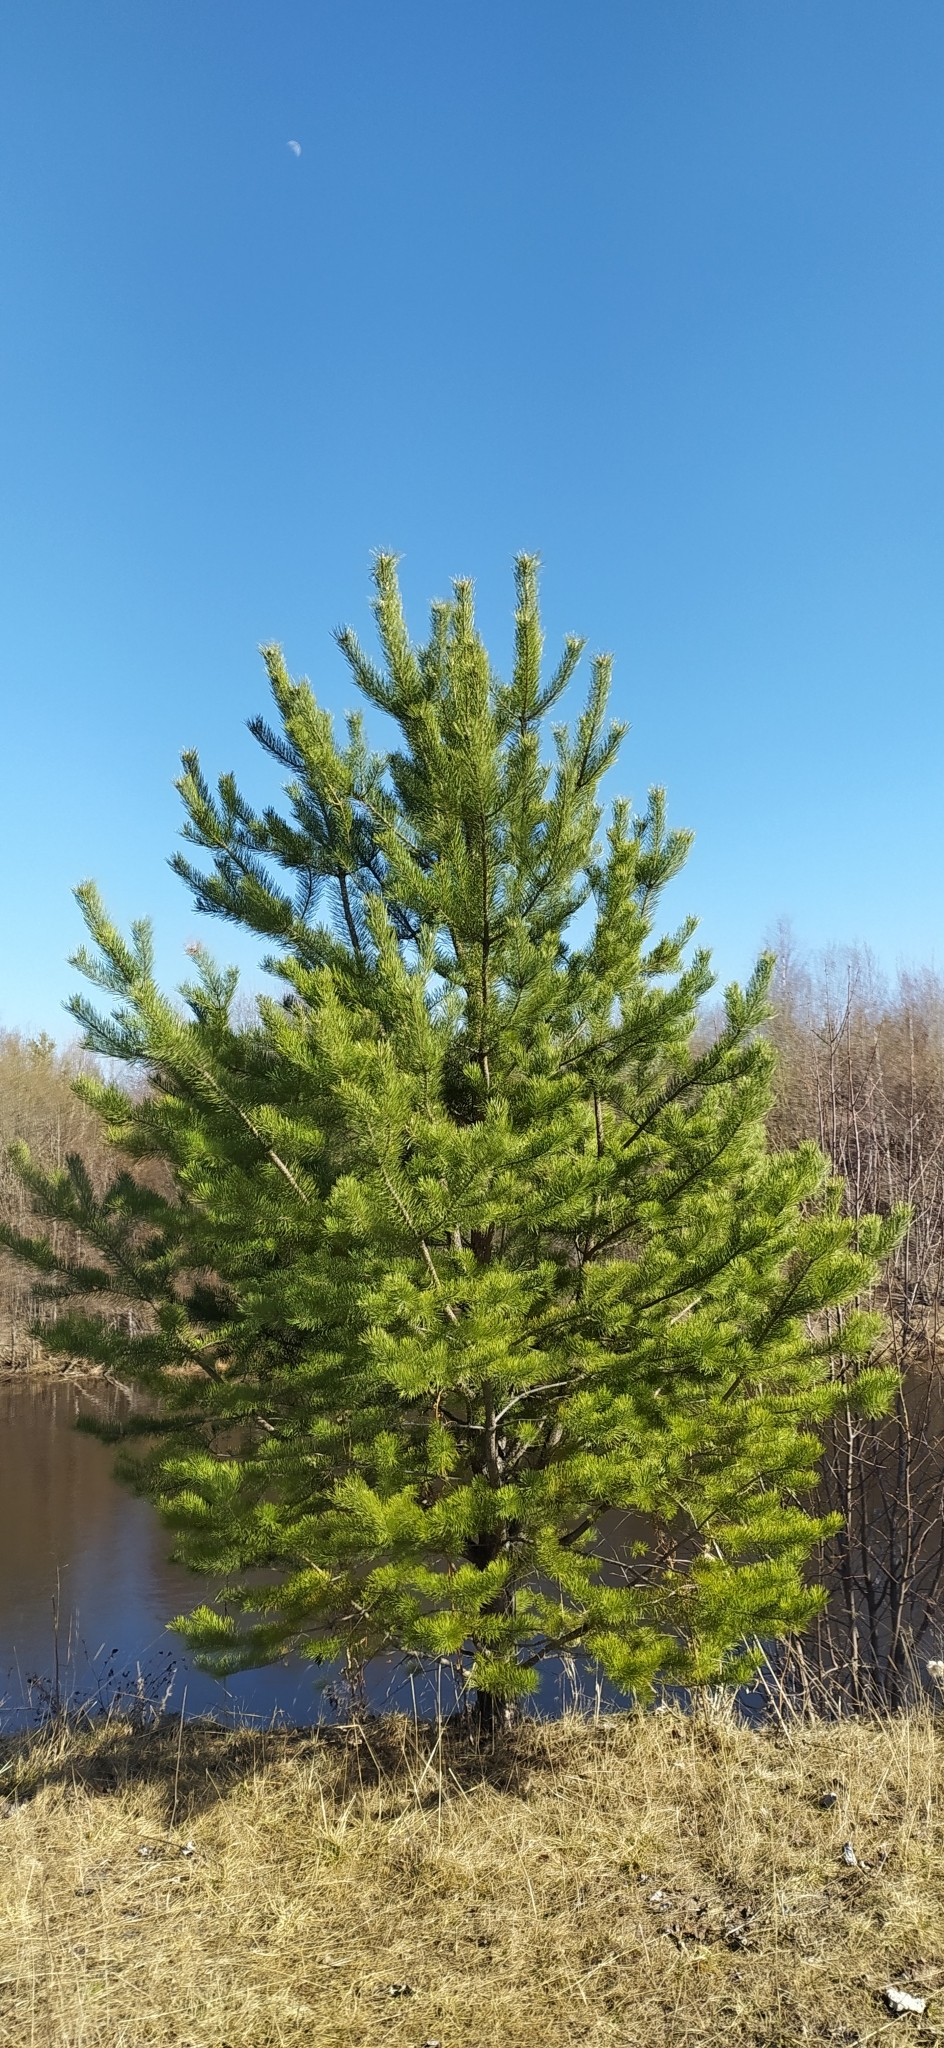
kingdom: Plantae
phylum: Tracheophyta
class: Pinopsida
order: Pinales
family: Pinaceae
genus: Pinus
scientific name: Pinus sylvestris
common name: Scots pine
